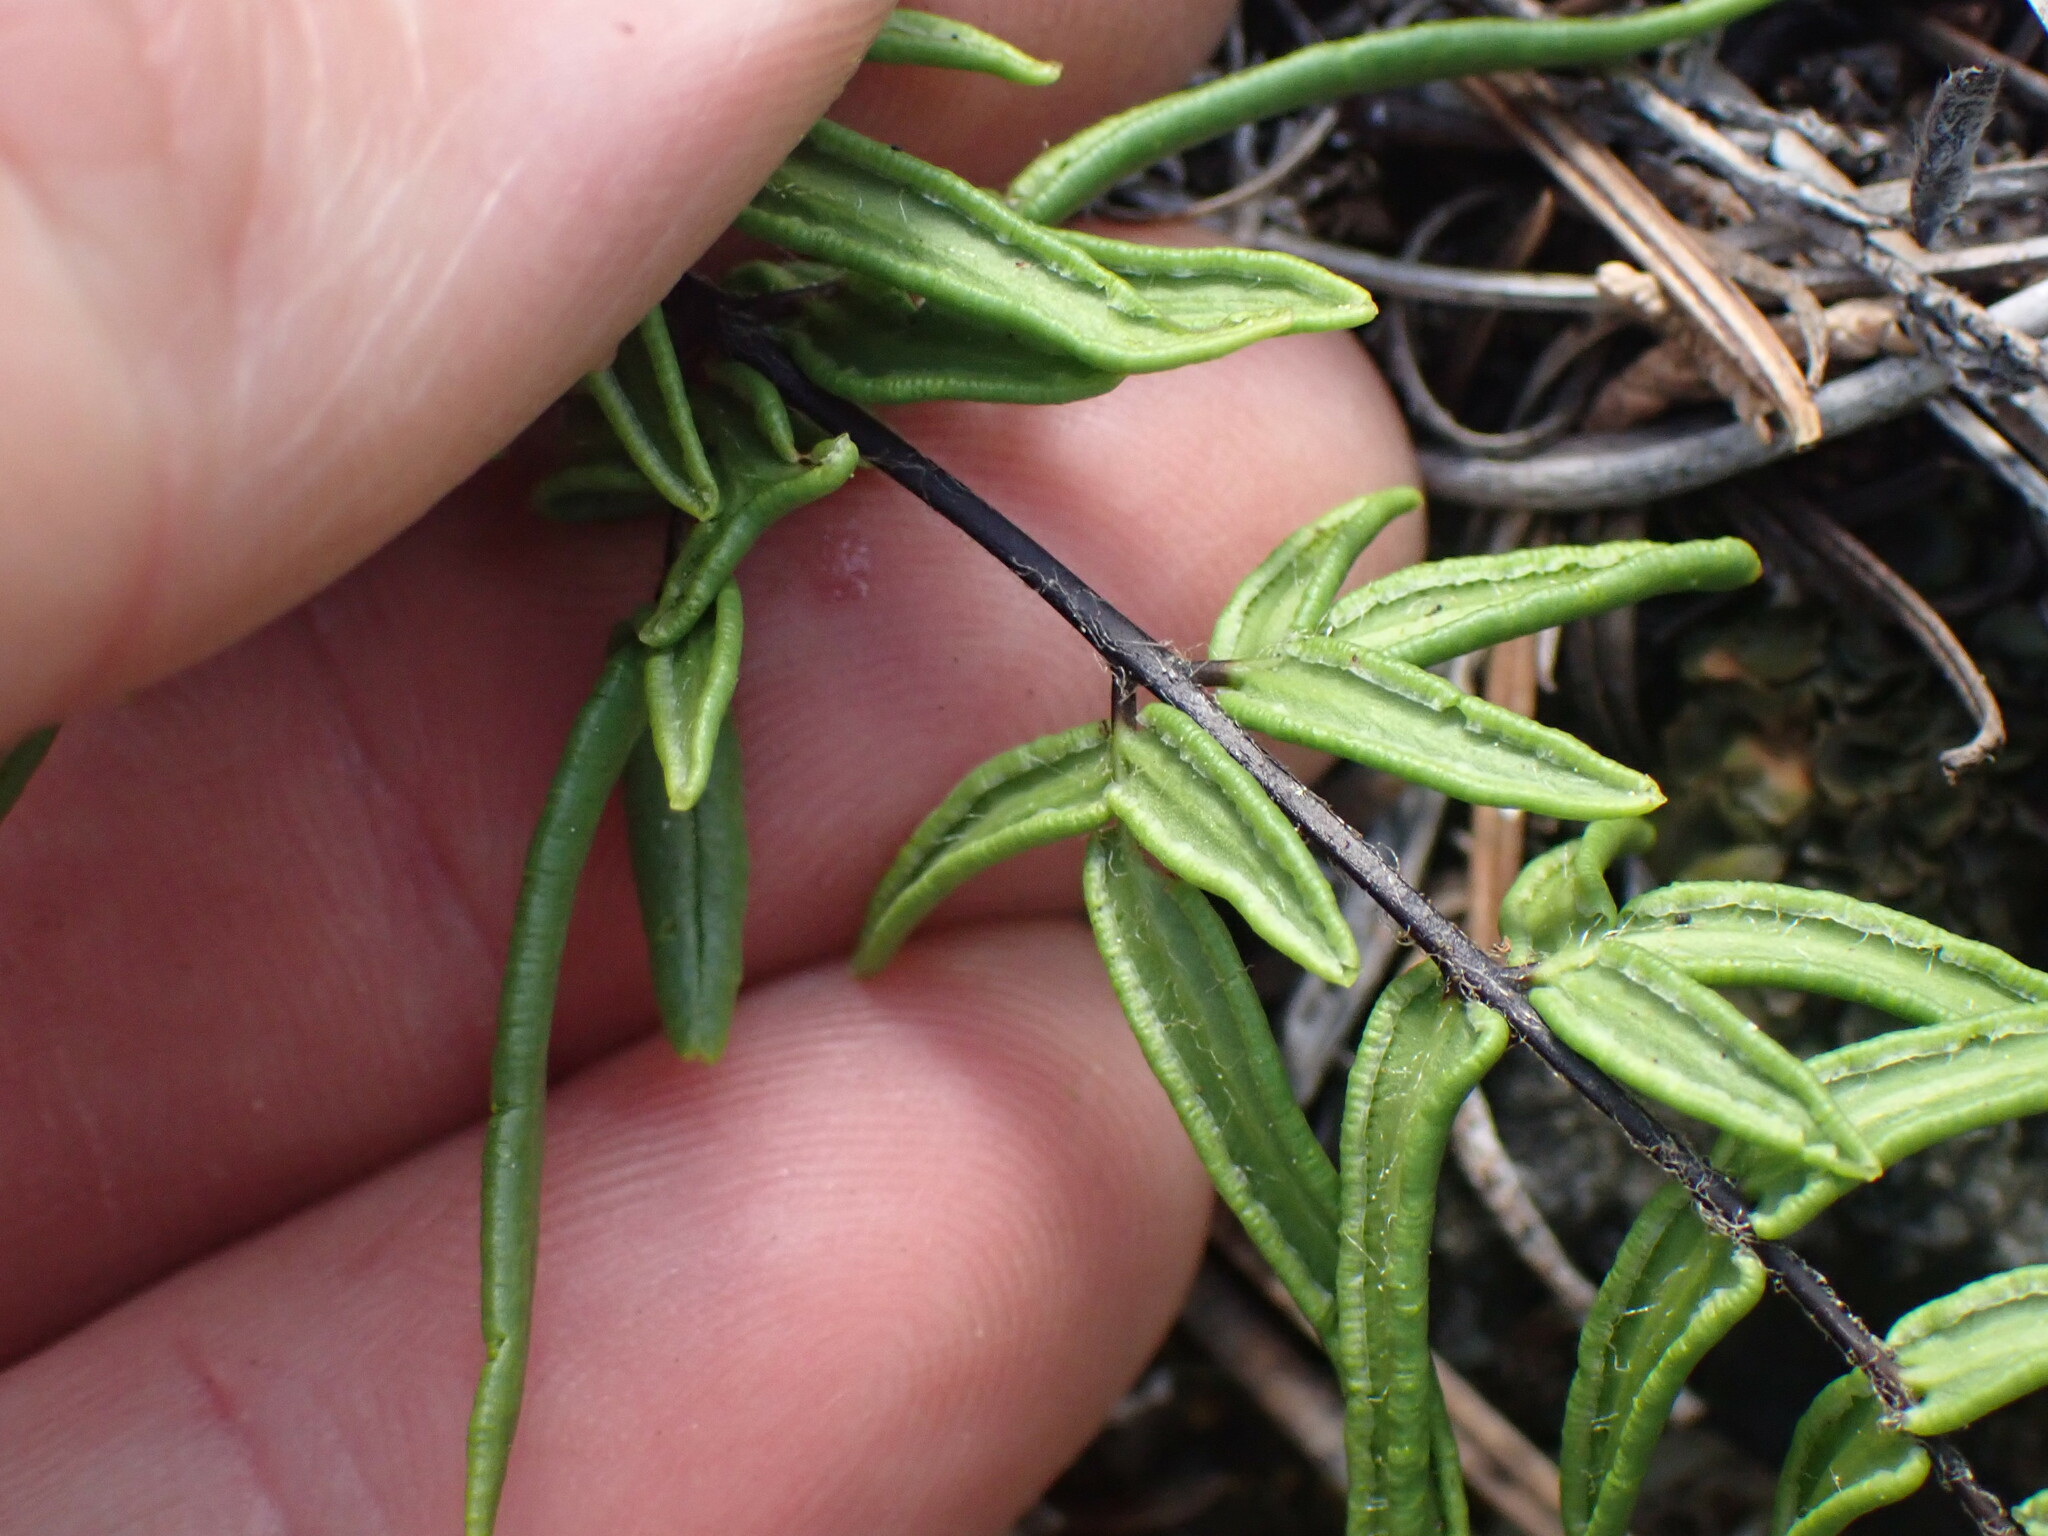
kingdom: Plantae
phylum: Tracheophyta
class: Polypodiopsida
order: Polypodiales
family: Pteridaceae
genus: Pellaea
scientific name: Pellaea gastonyi
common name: Gastony's cliffbrake
